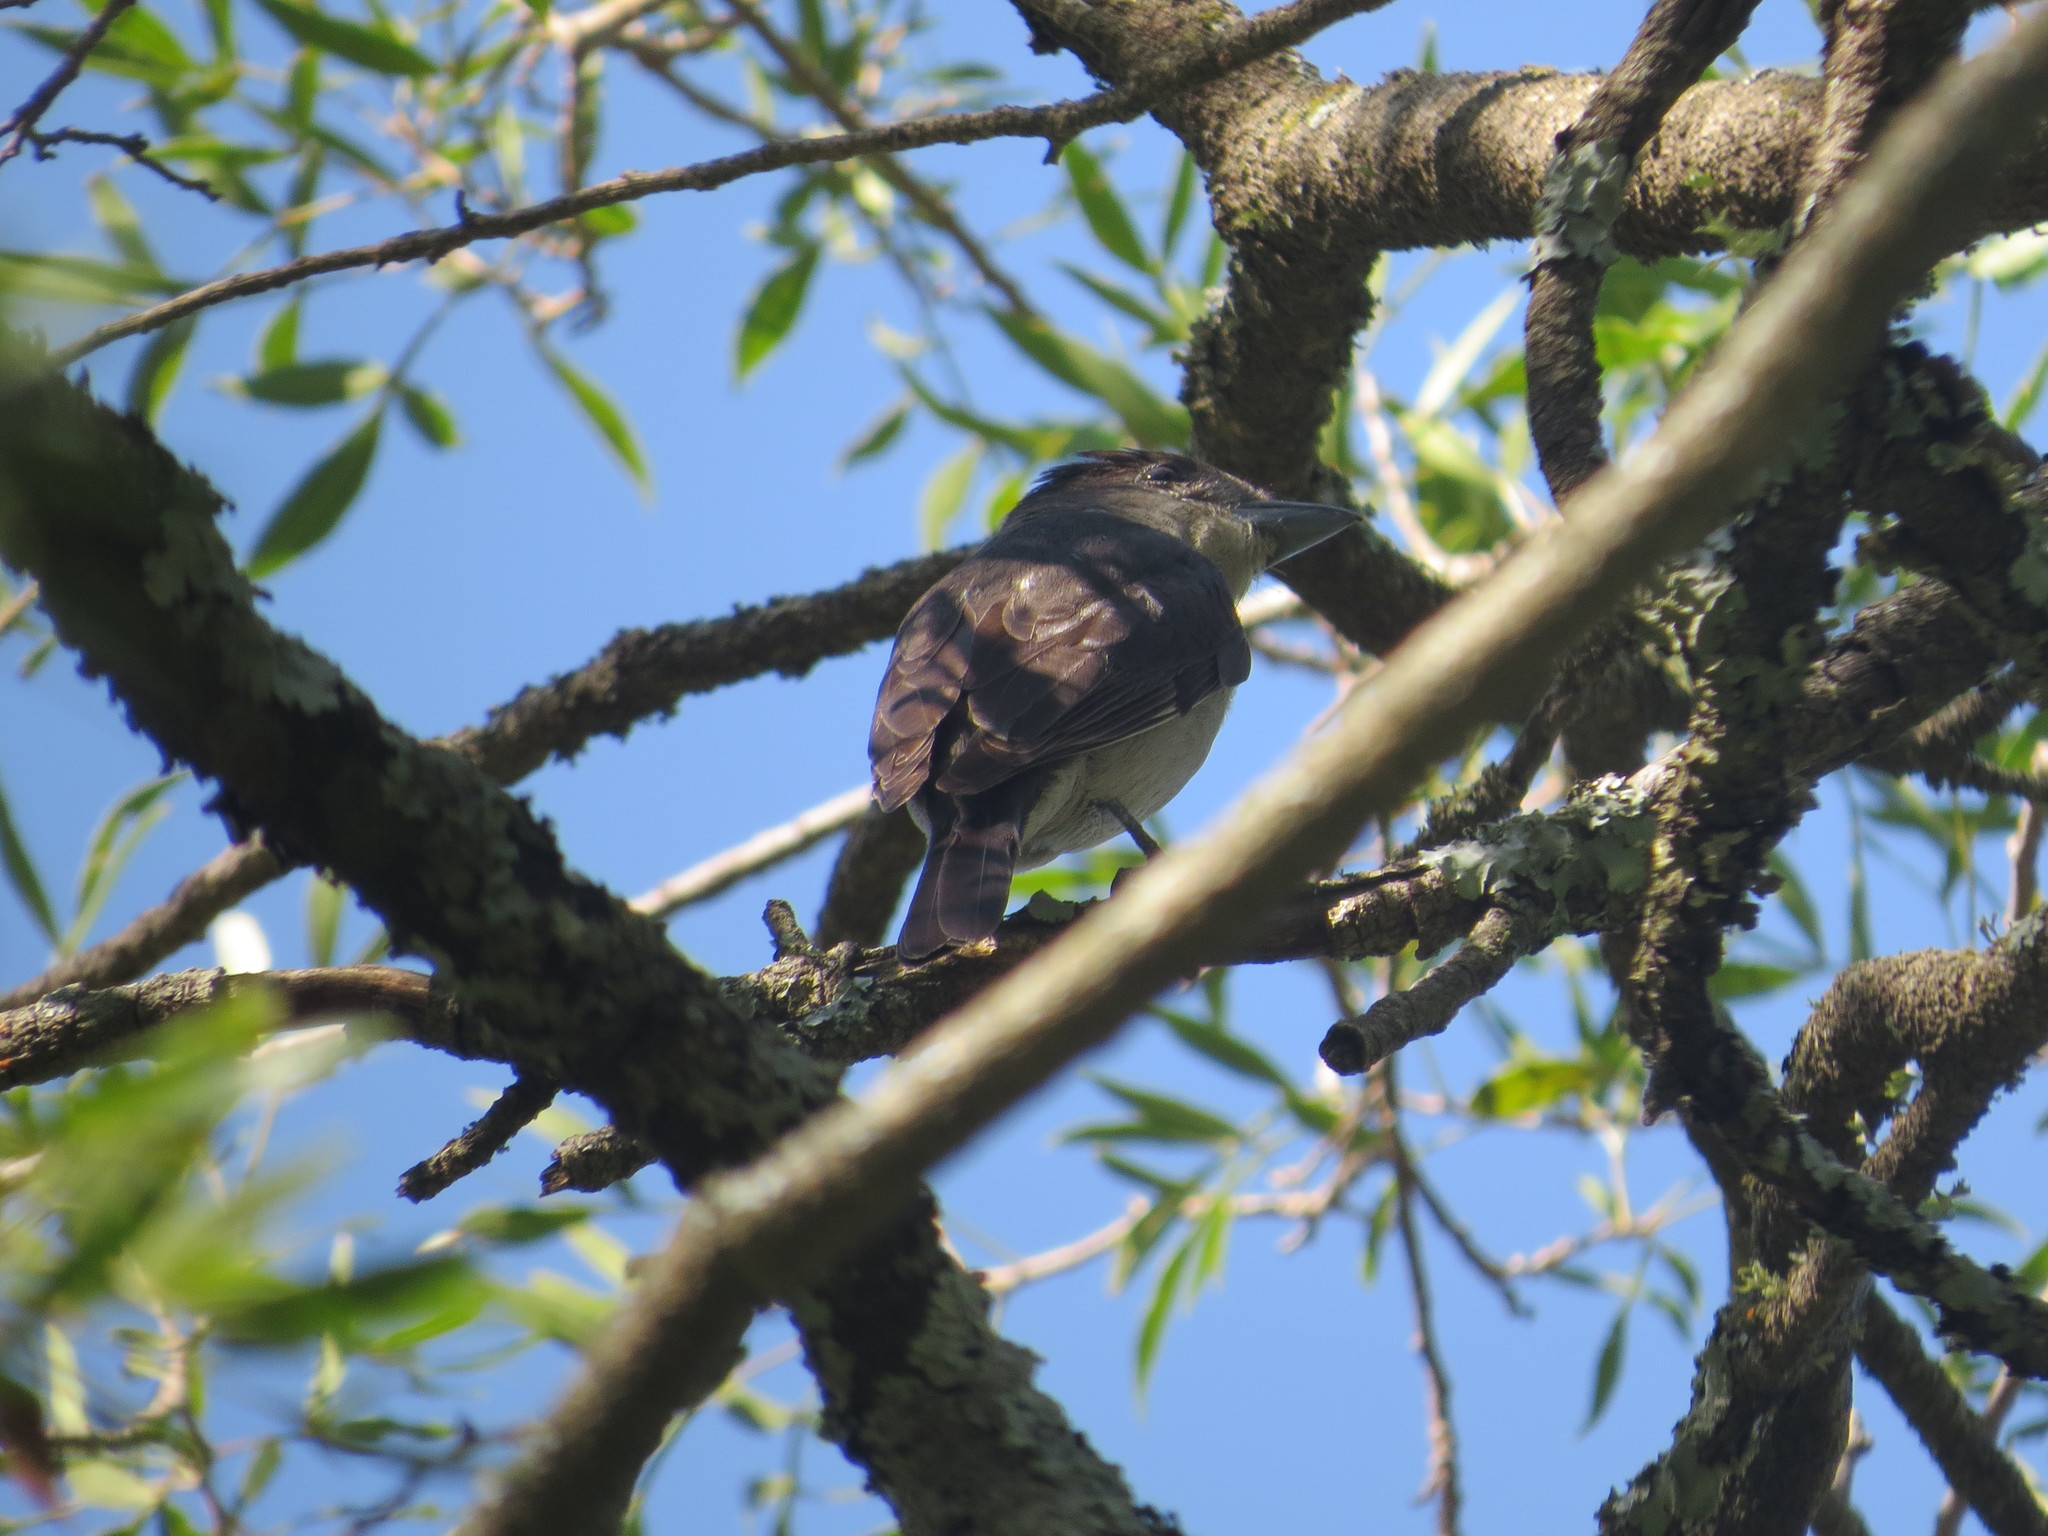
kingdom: Animalia
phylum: Chordata
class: Aves
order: Passeriformes
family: Cotingidae
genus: Pachyramphus
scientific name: Pachyramphus validus
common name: Crested becard
